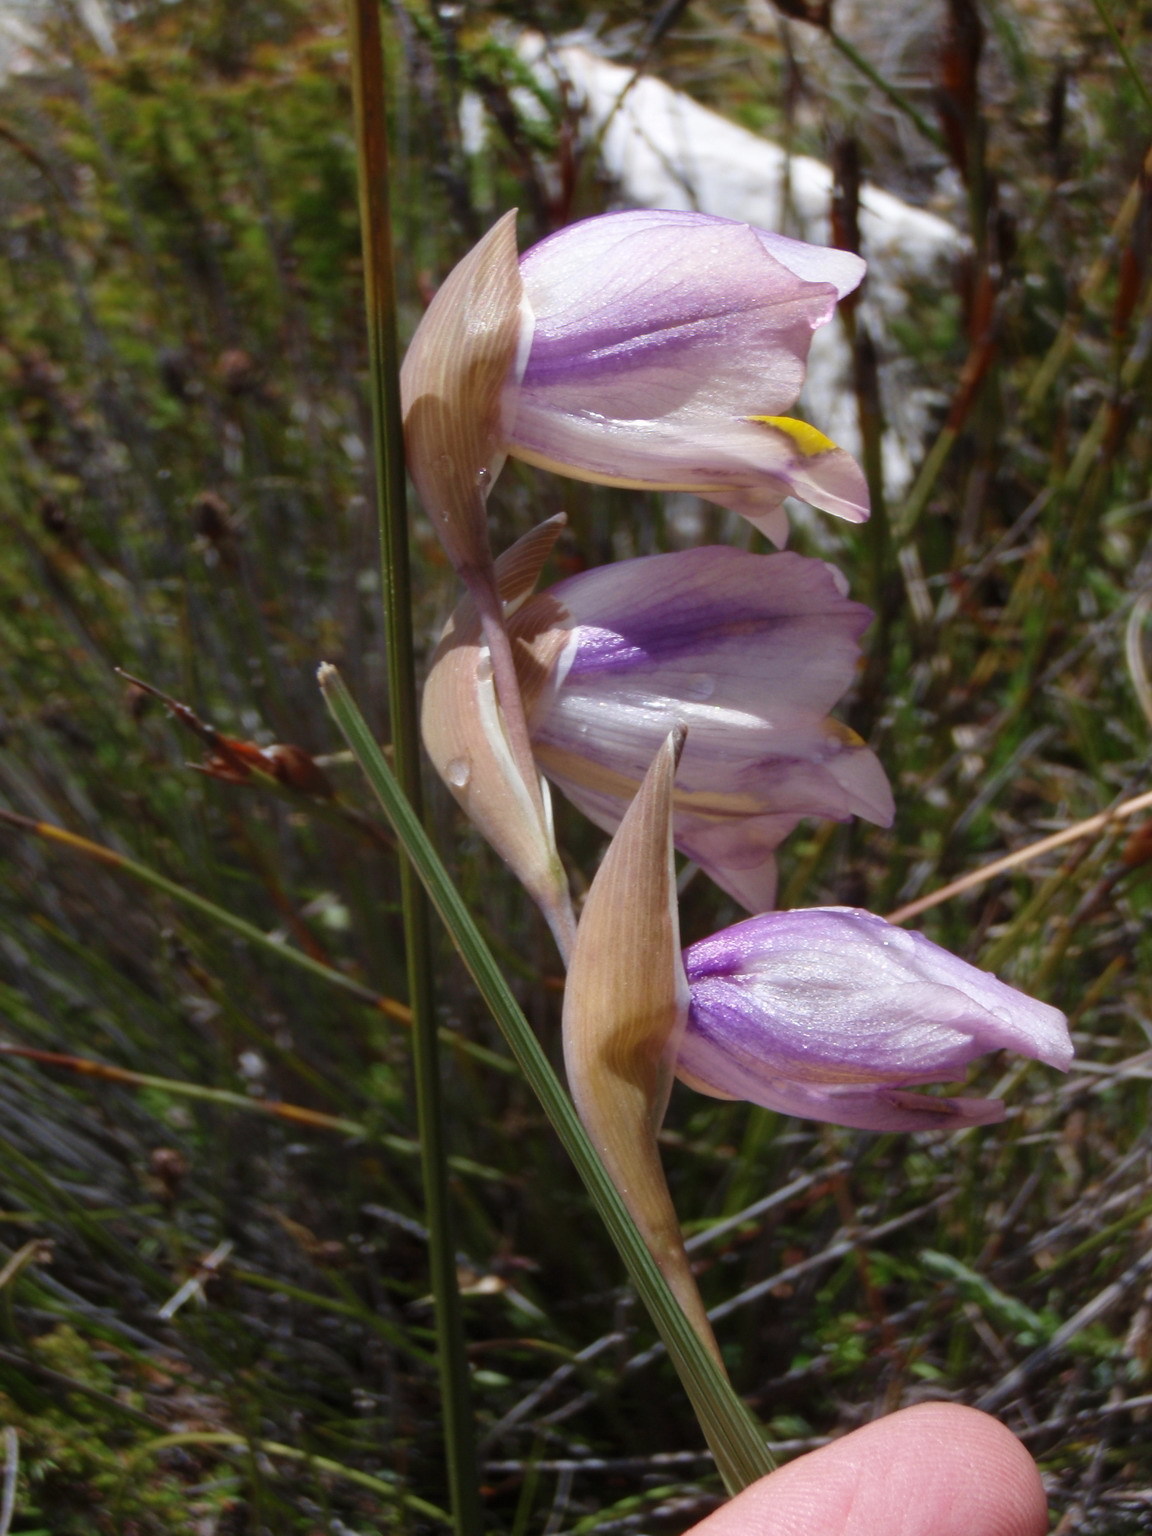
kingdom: Plantae
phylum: Tracheophyta
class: Liliopsida
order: Asparagales
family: Iridaceae
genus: Gladiolus
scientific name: Gladiolus patersoniae
